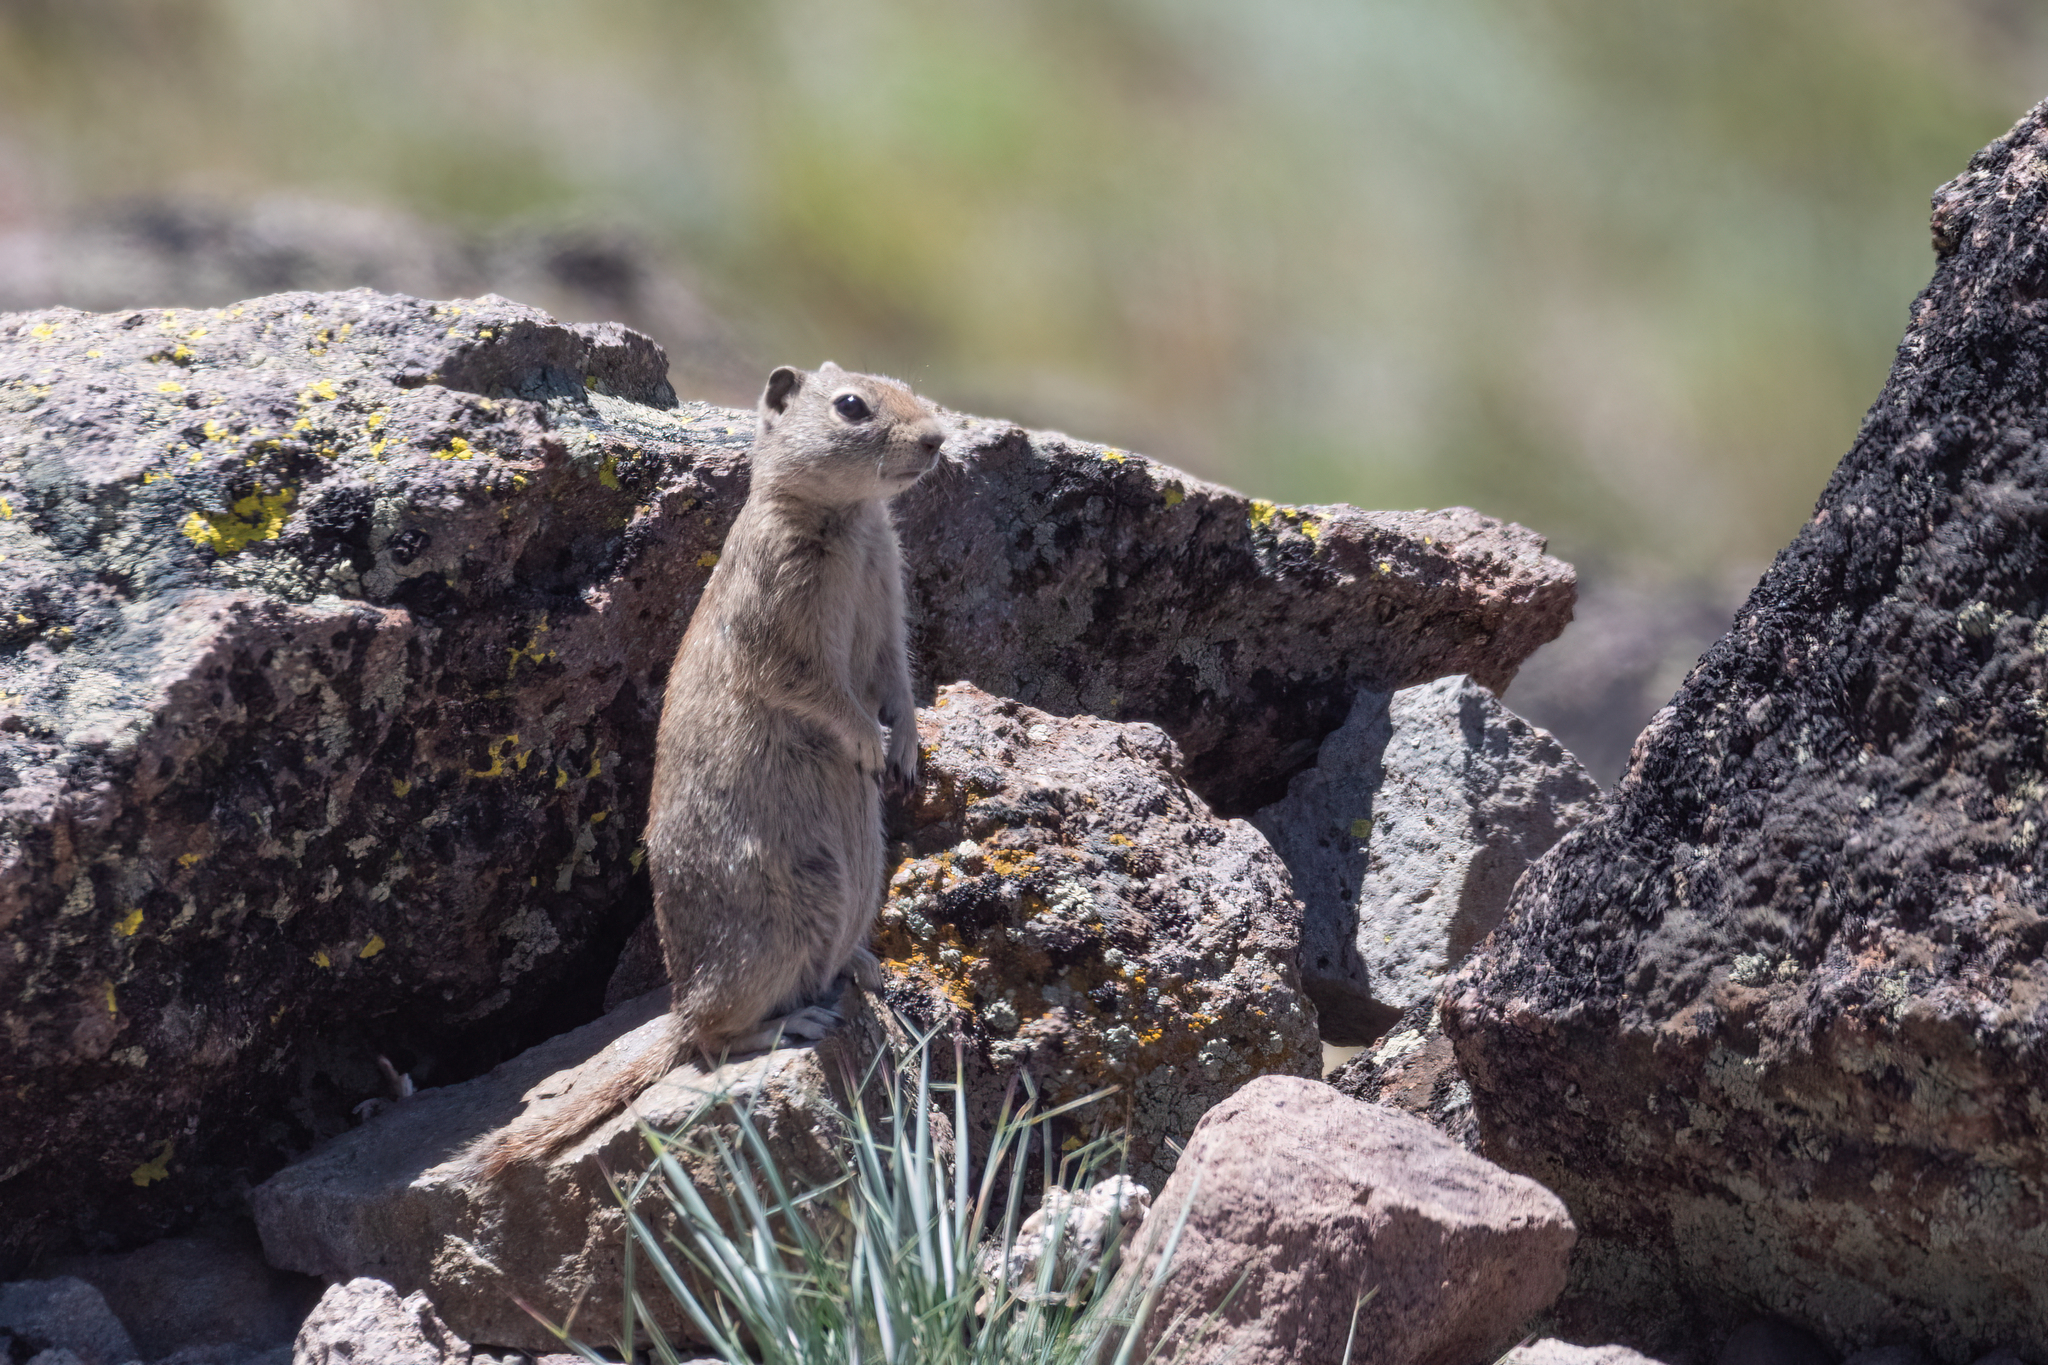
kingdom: Animalia
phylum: Chordata
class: Mammalia
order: Rodentia
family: Sciuridae
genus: Urocitellus
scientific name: Urocitellus beldingi
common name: Belding's ground squirrel
